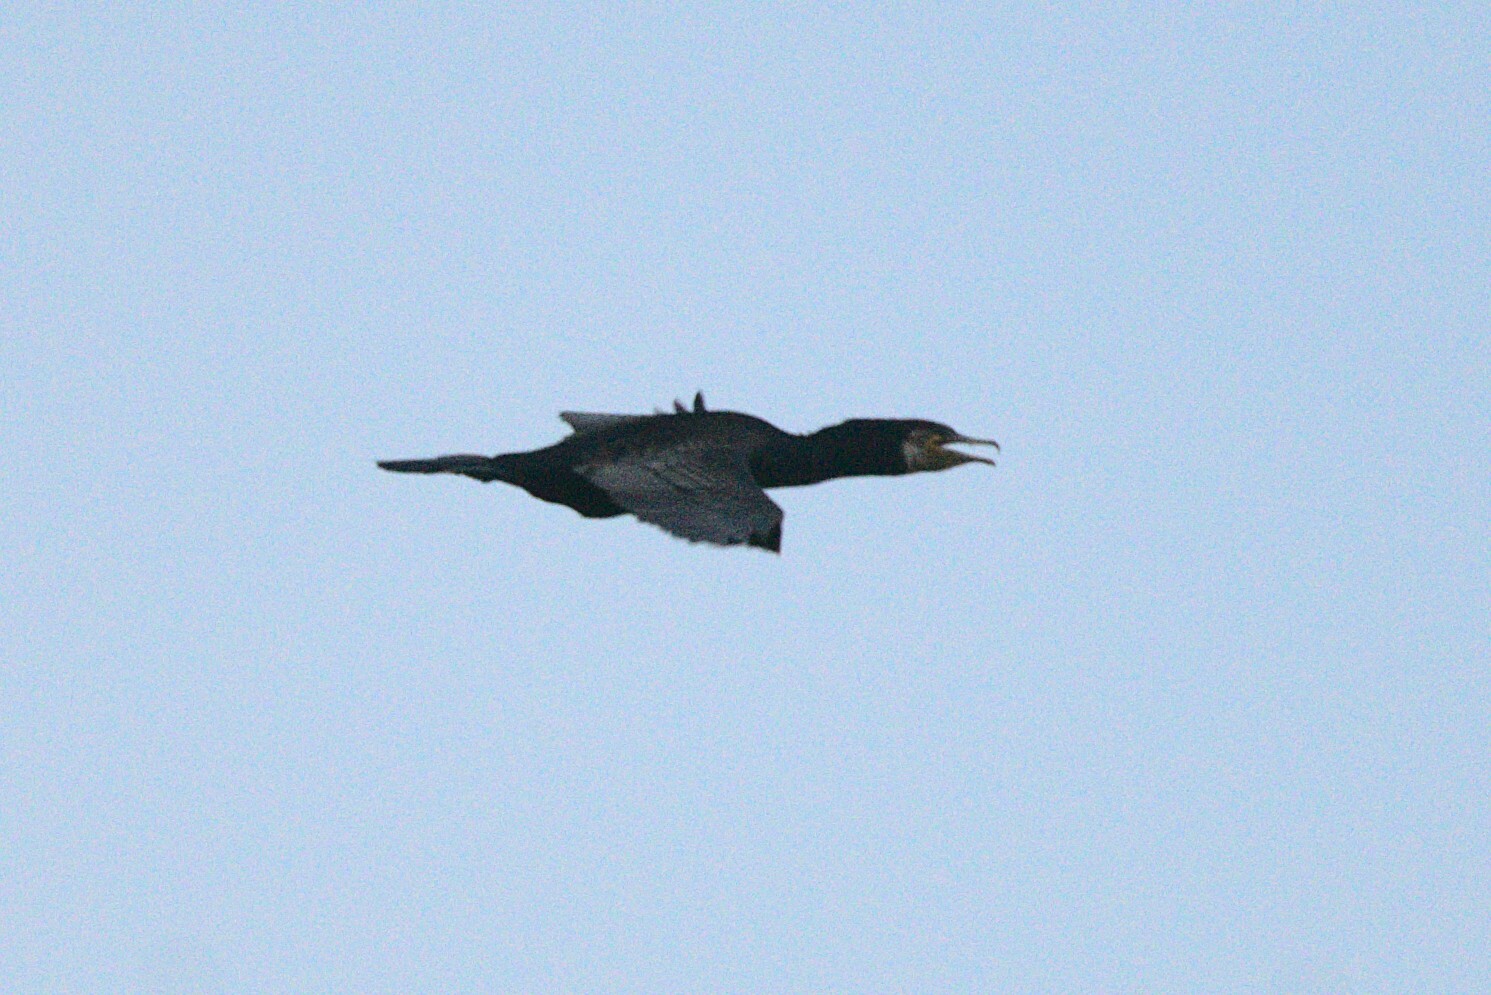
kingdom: Animalia
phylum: Chordata
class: Aves
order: Suliformes
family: Phalacrocoracidae
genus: Phalacrocorax
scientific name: Phalacrocorax carbo
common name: Great cormorant
